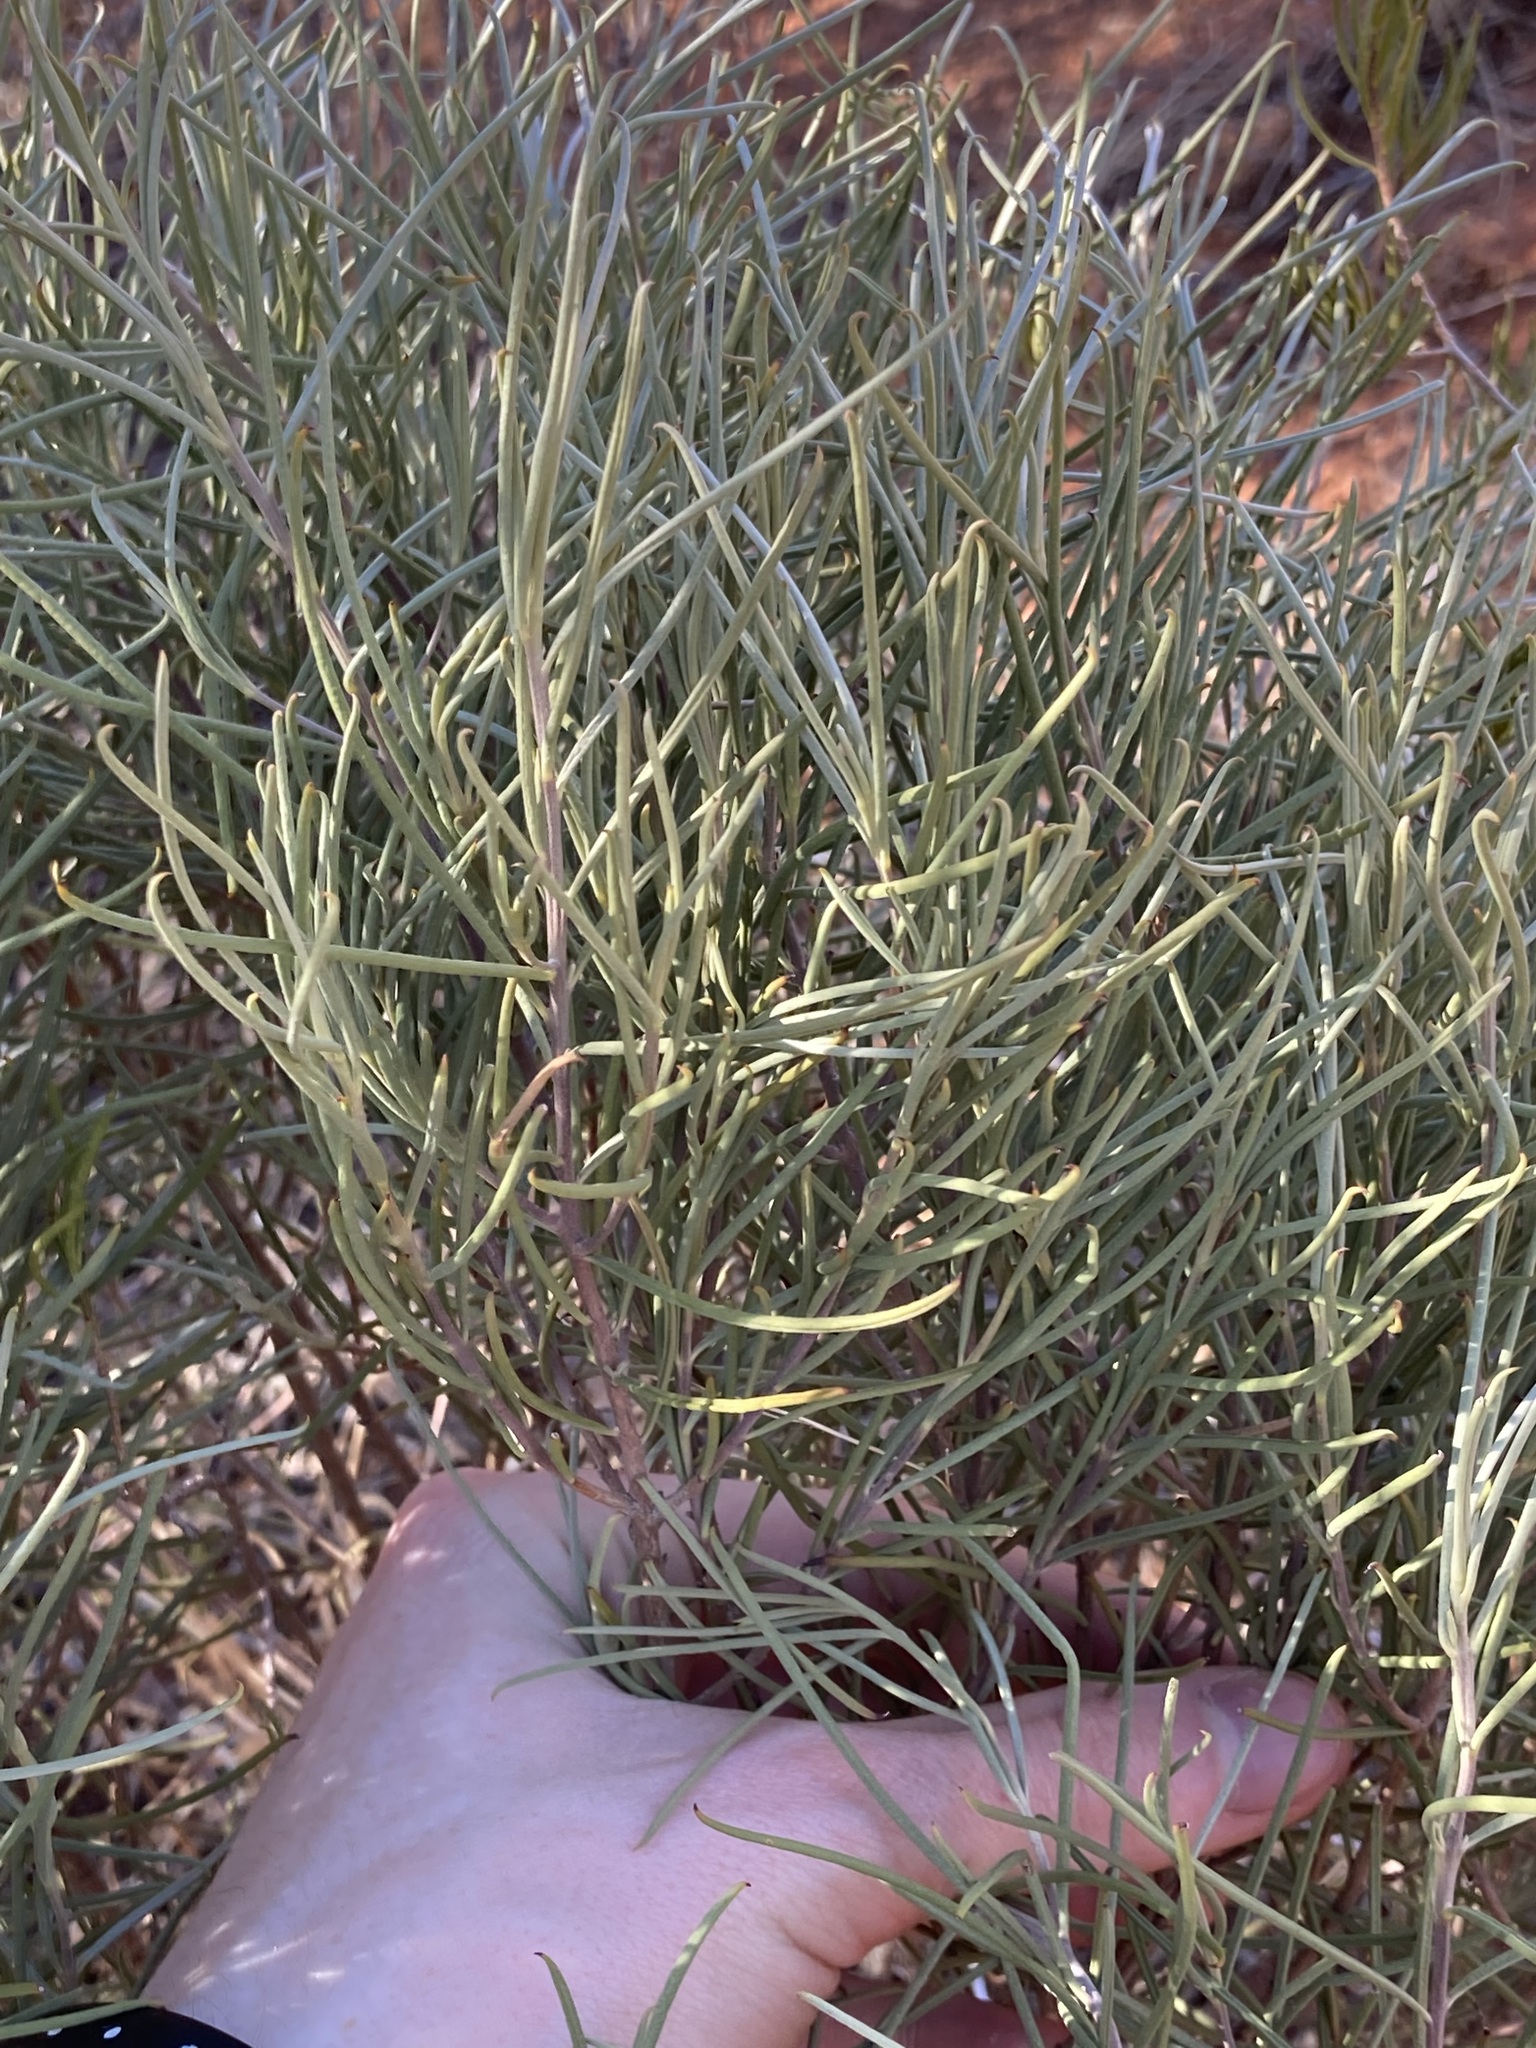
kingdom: Plantae
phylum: Tracheophyta
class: Magnoliopsida
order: Lamiales
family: Scrophulariaceae
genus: Eremophila
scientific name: Eremophila oppositifolia
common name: Mountain-sandalwood
